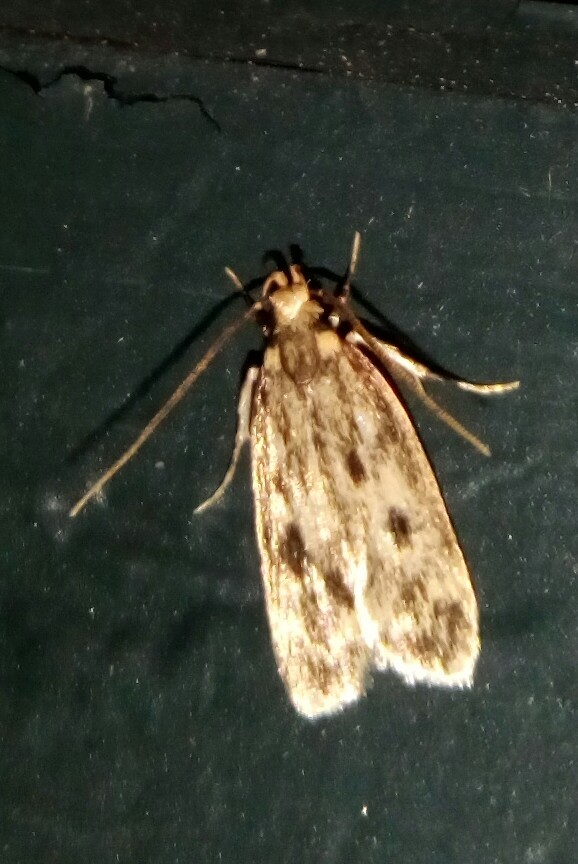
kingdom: Animalia
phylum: Arthropoda
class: Insecta
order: Lepidoptera
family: Lecithoceridae
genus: Martyringa
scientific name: Martyringa latipennis
